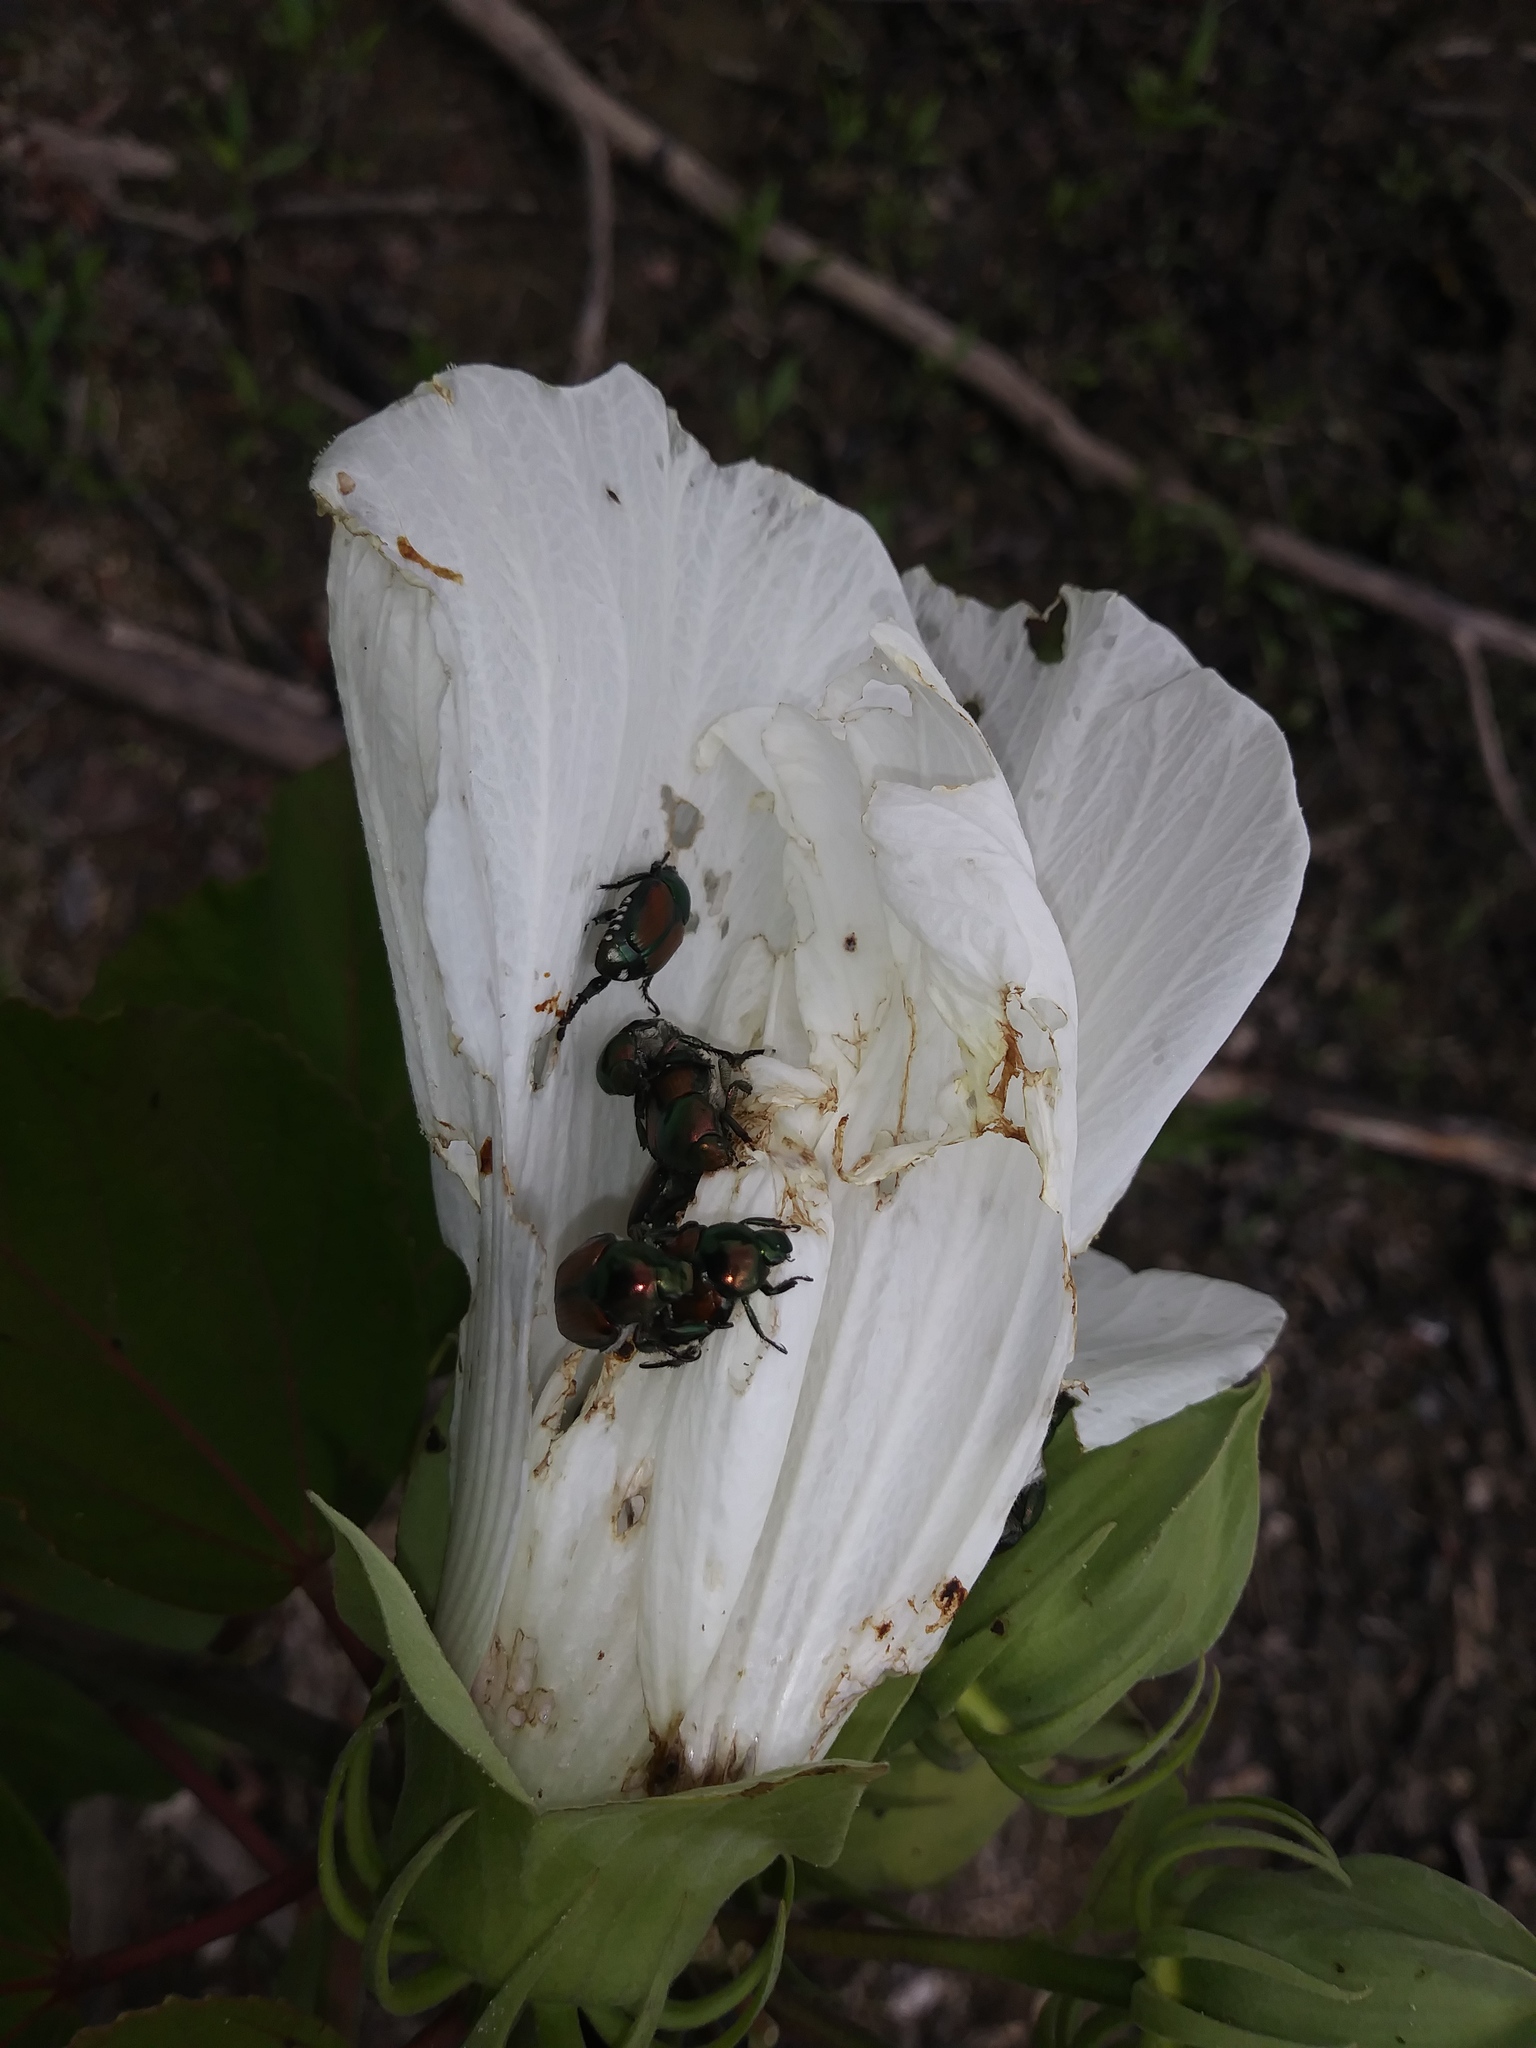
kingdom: Animalia
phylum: Arthropoda
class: Insecta
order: Coleoptera
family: Scarabaeidae
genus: Popillia
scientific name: Popillia japonica
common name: Japanese beetle
